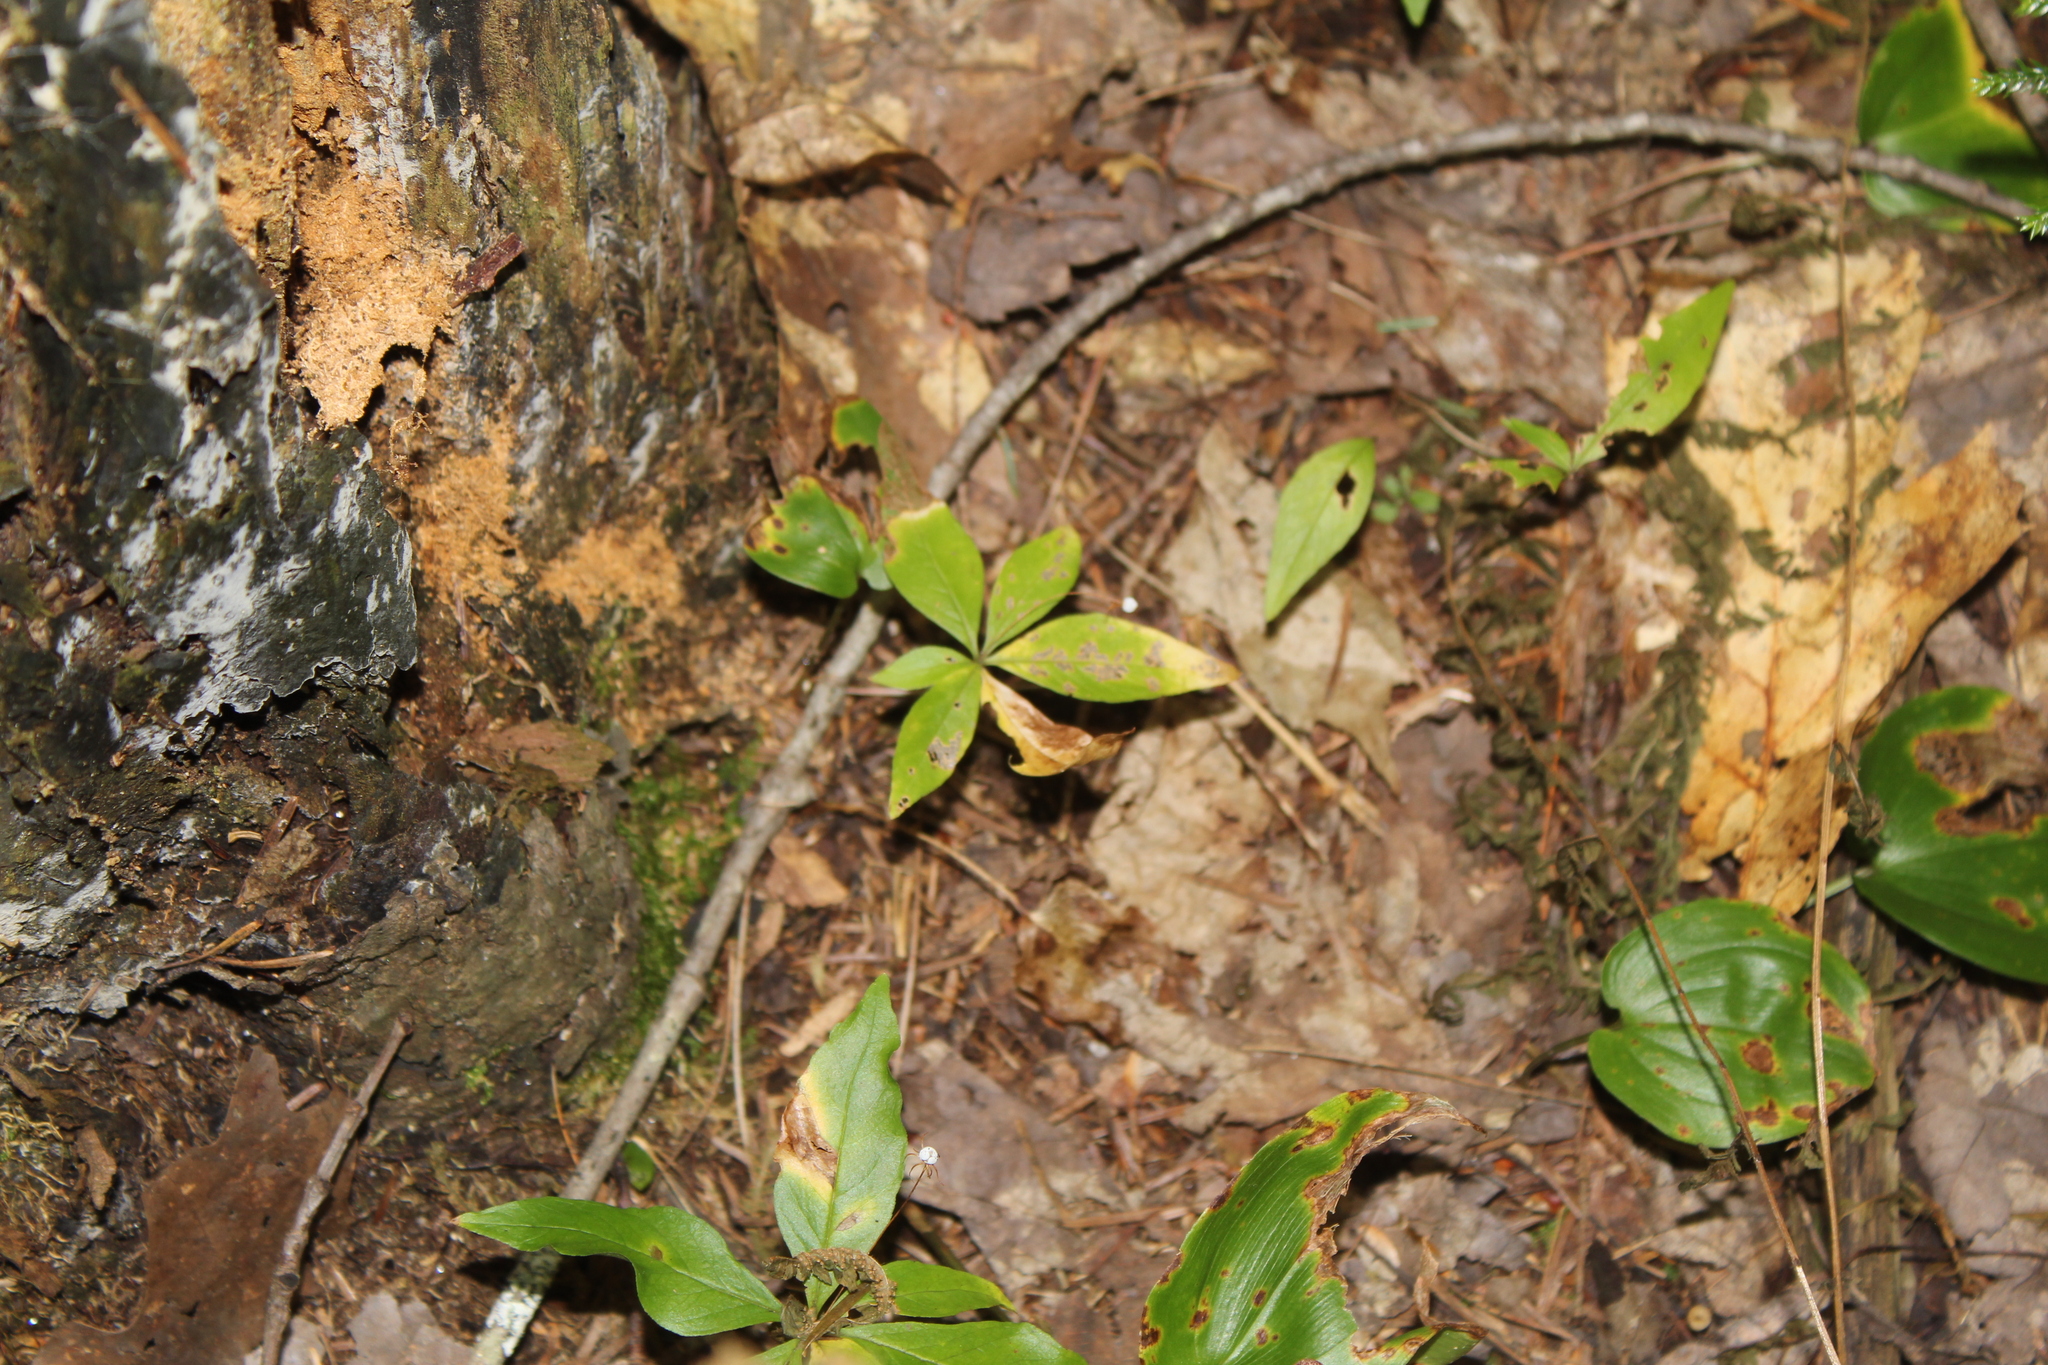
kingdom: Plantae
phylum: Tracheophyta
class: Magnoliopsida
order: Ericales
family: Primulaceae
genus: Lysimachia
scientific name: Lysimachia borealis
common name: American starflower
